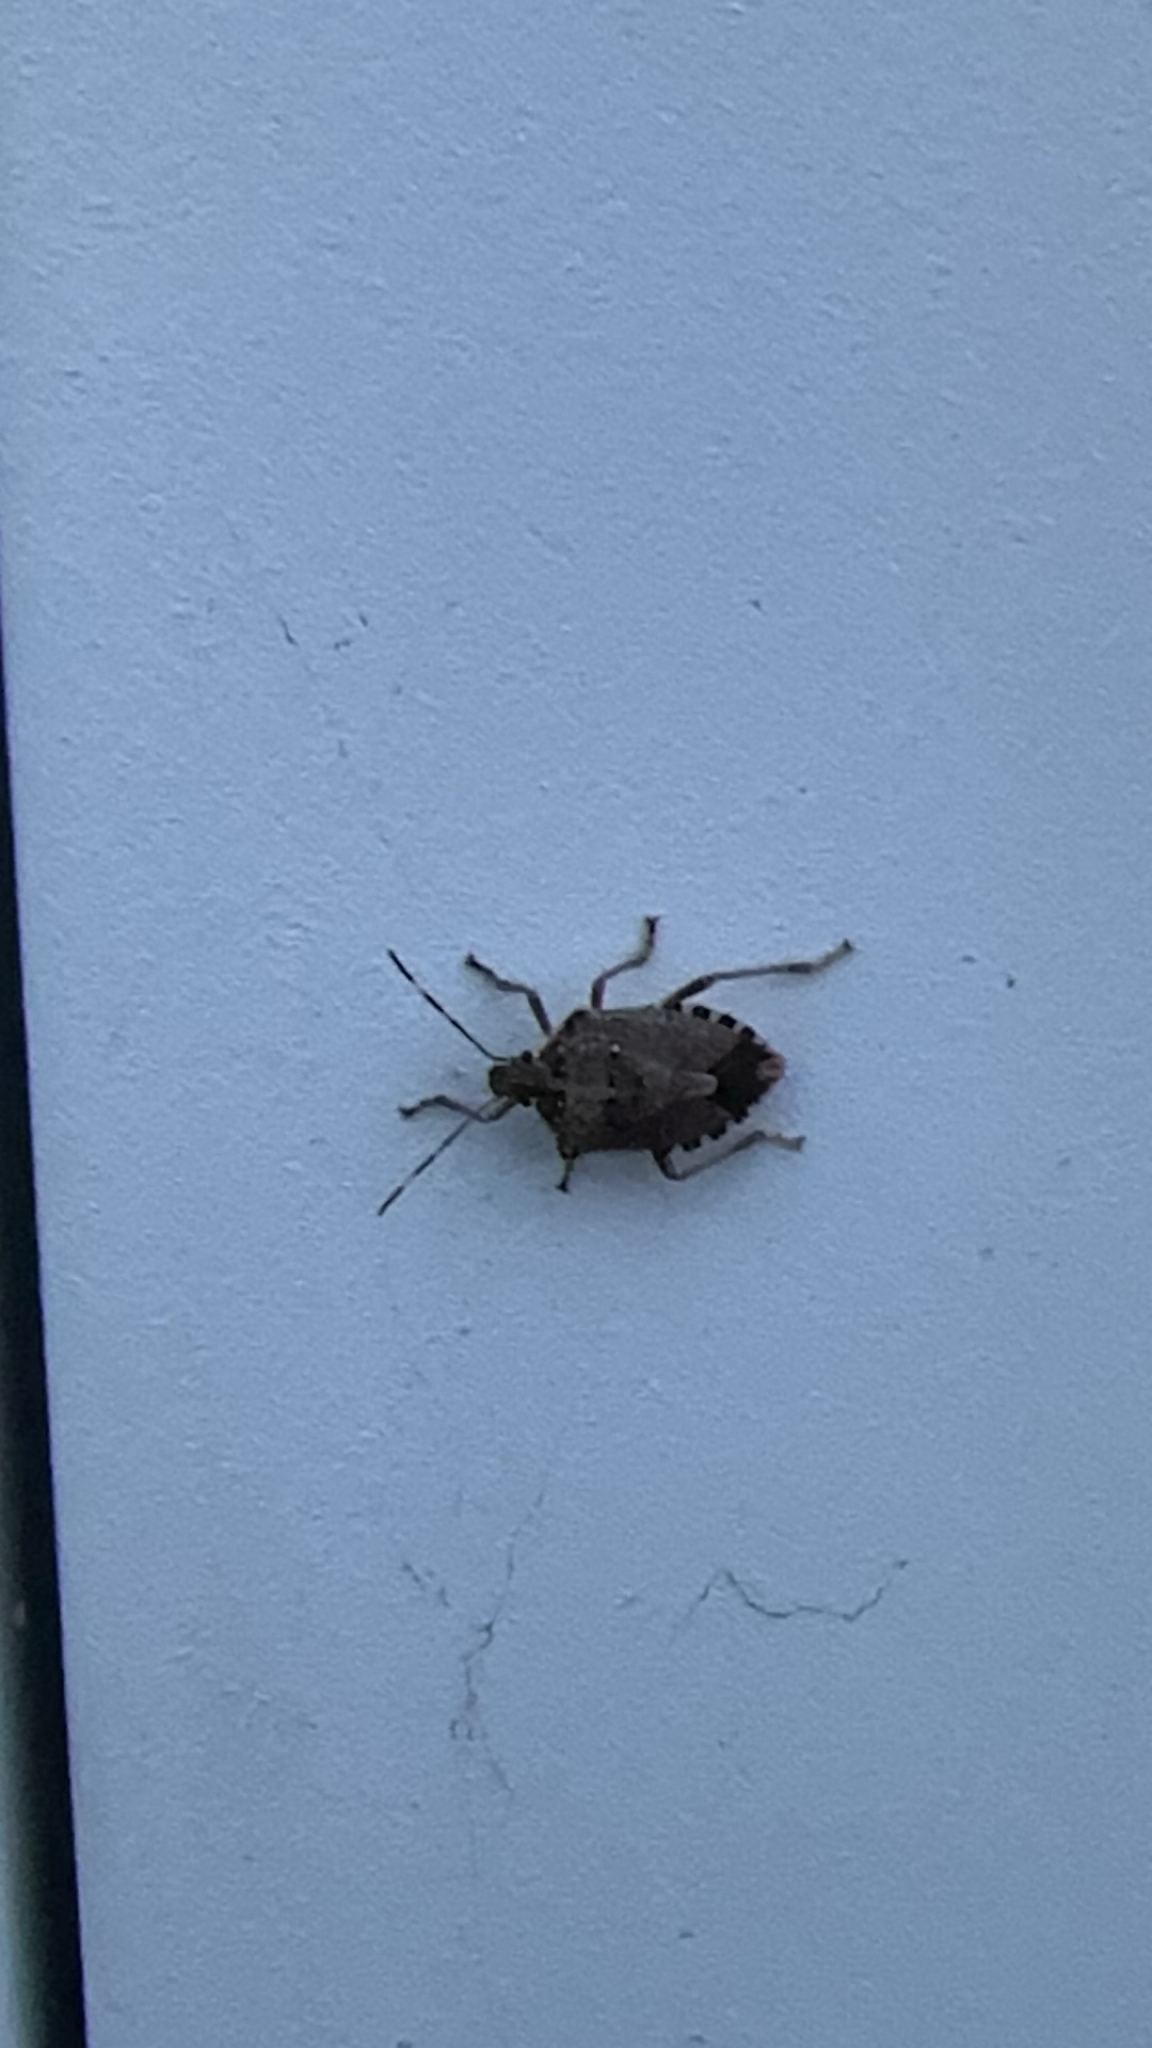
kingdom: Animalia
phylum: Arthropoda
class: Insecta
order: Hemiptera
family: Pentatomidae
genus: Halyomorpha
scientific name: Halyomorpha halys
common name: Brown marmorated stink bug
